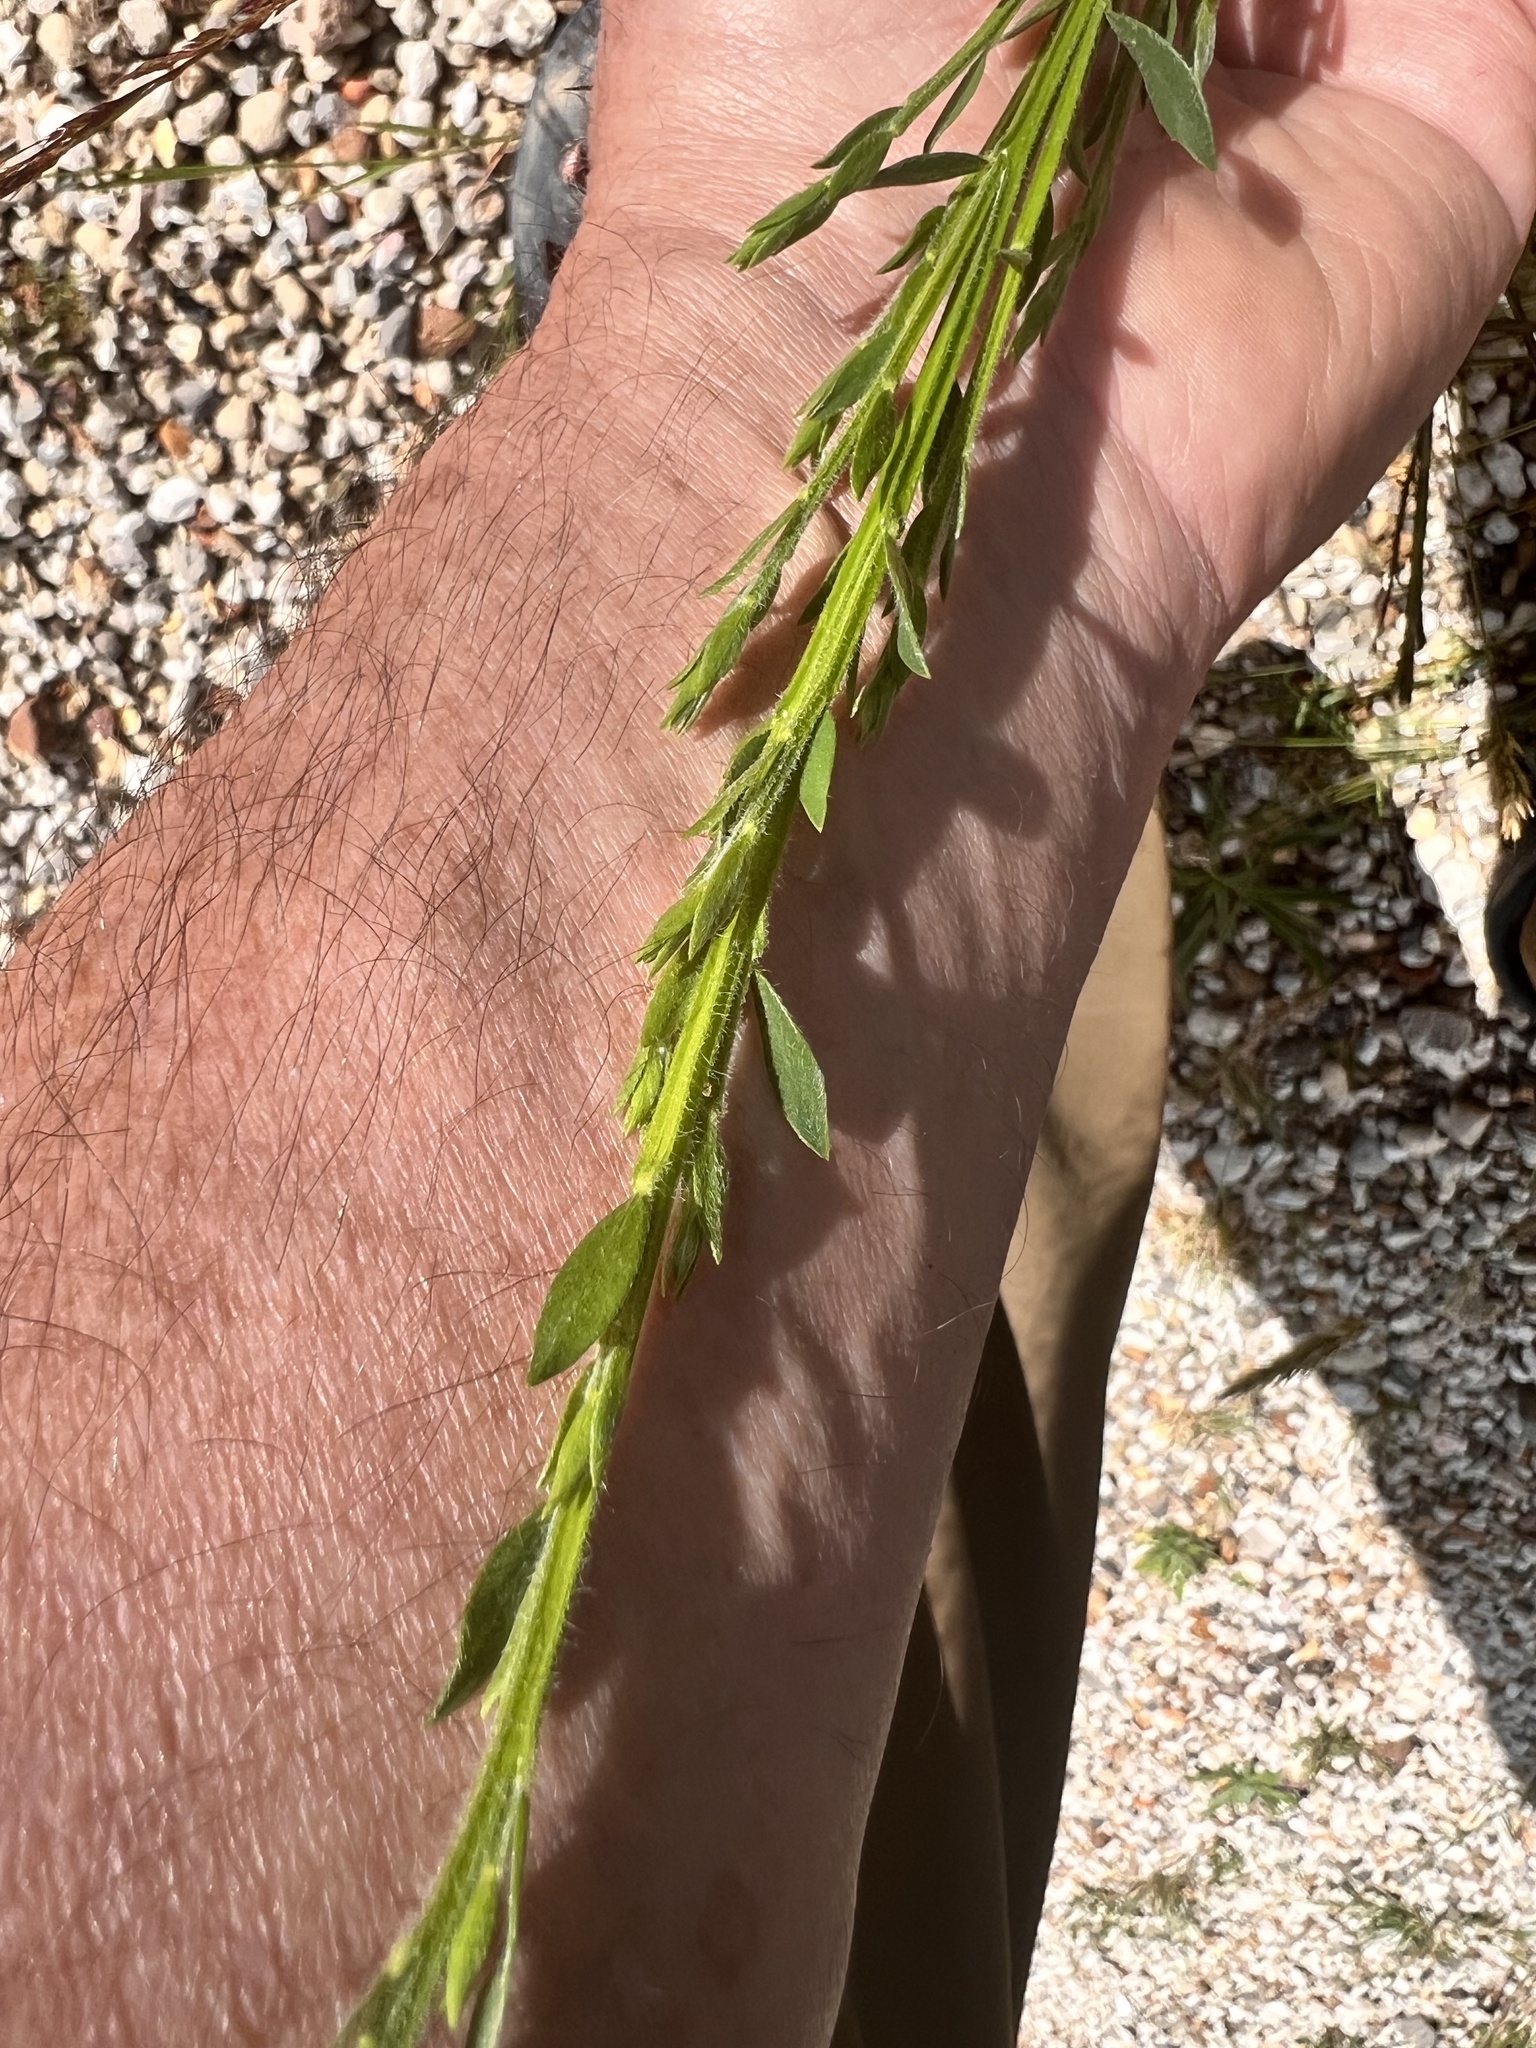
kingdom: Plantae
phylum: Tracheophyta
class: Magnoliopsida
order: Fabales
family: Fabaceae
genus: Cytisus
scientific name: Cytisus scoparius
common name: Scotch broom
